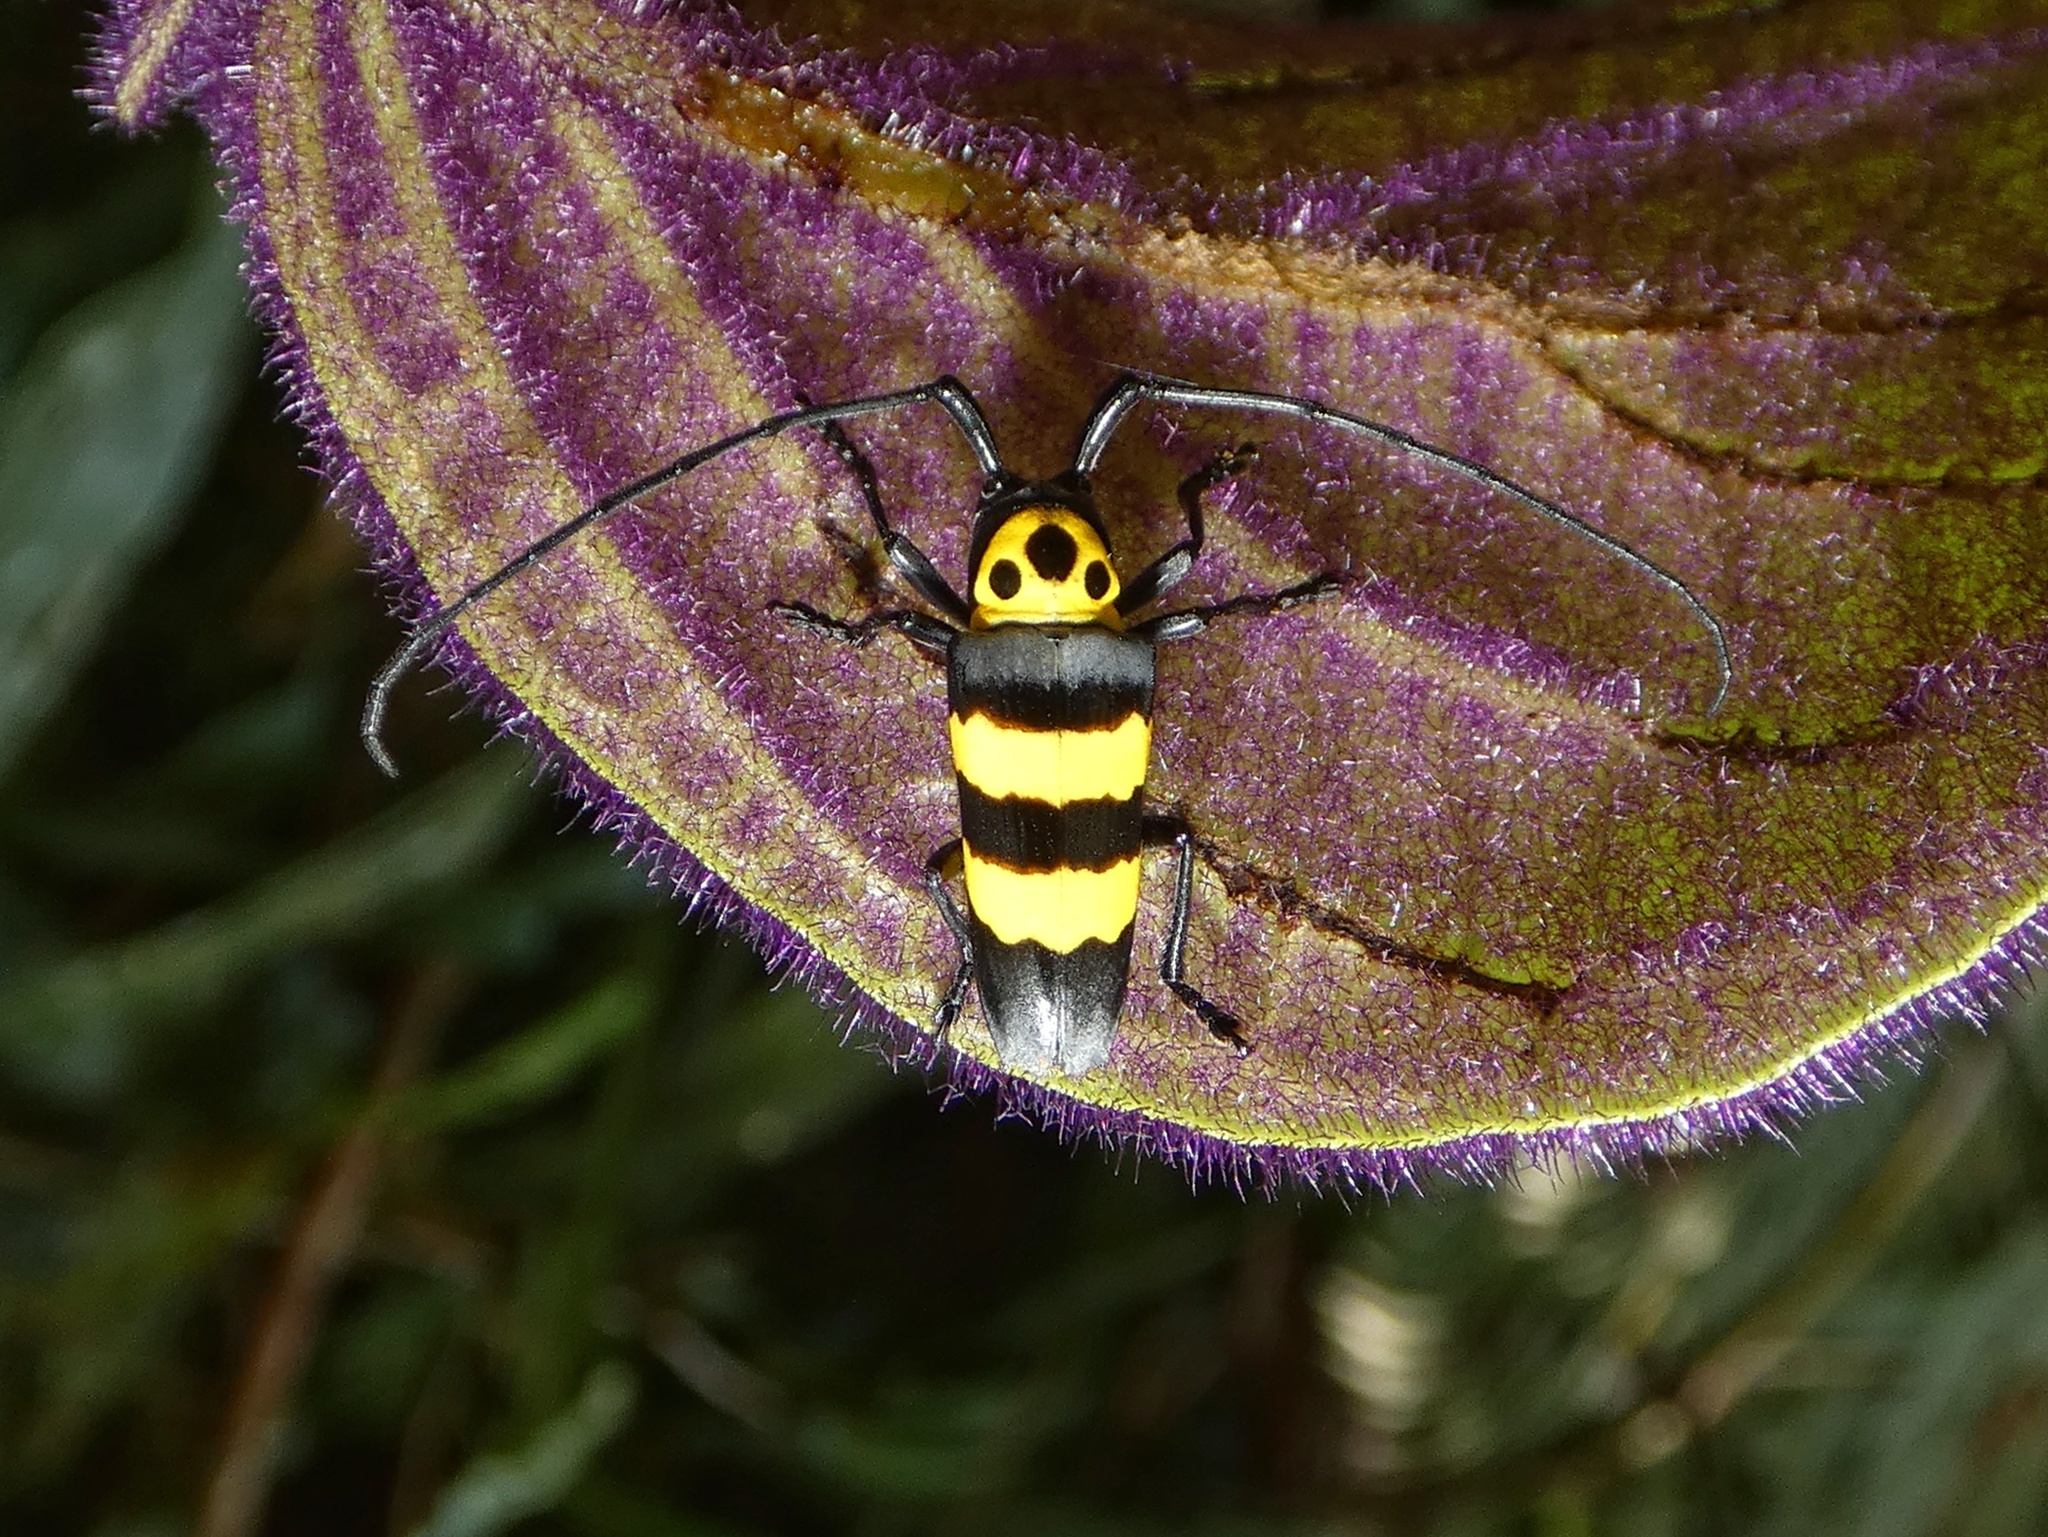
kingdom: Animalia
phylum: Arthropoda
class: Insecta
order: Coleoptera
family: Cerambycidae
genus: Oedudes
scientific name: Oedudes spectabilis
